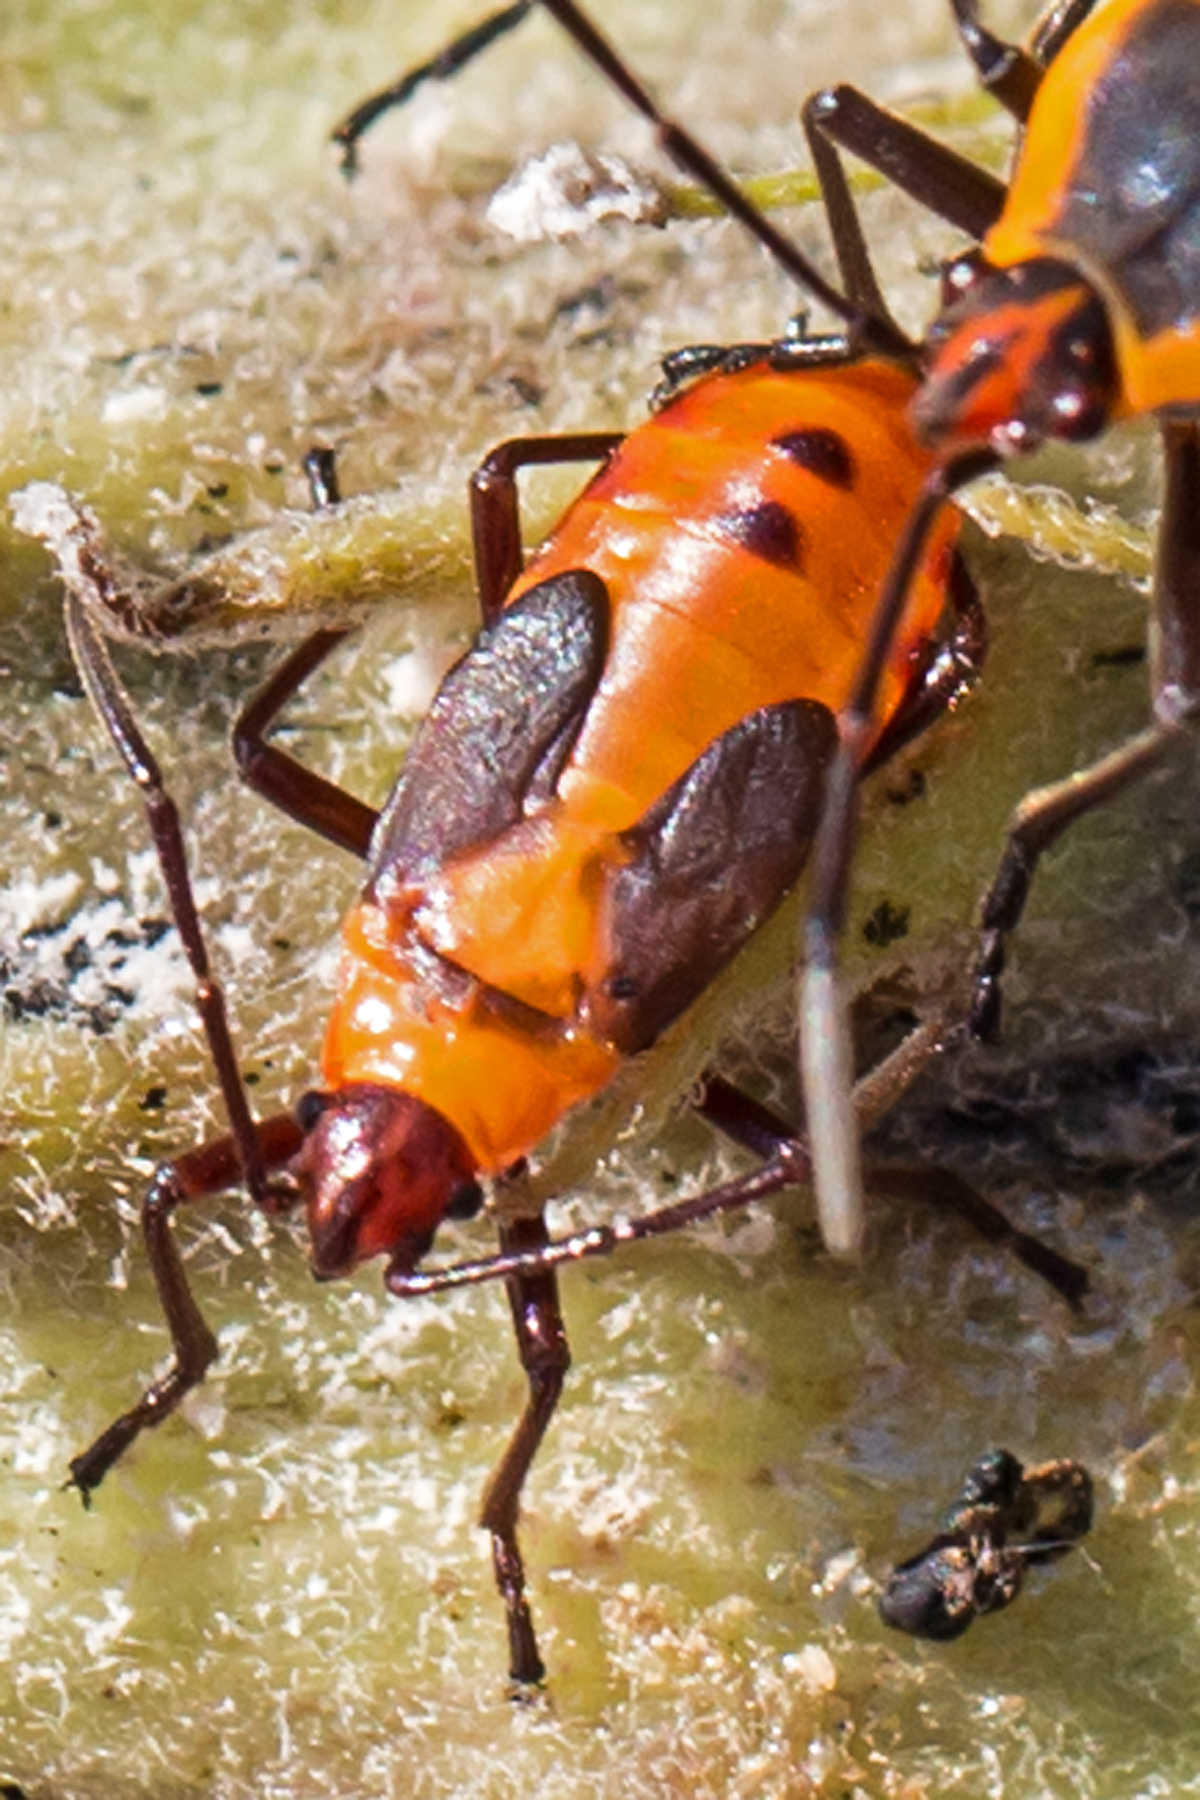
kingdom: Animalia
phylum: Arthropoda
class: Insecta
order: Hemiptera
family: Lygaeidae
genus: Oncopeltus
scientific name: Oncopeltus fasciatus
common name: Large milkweed bug
